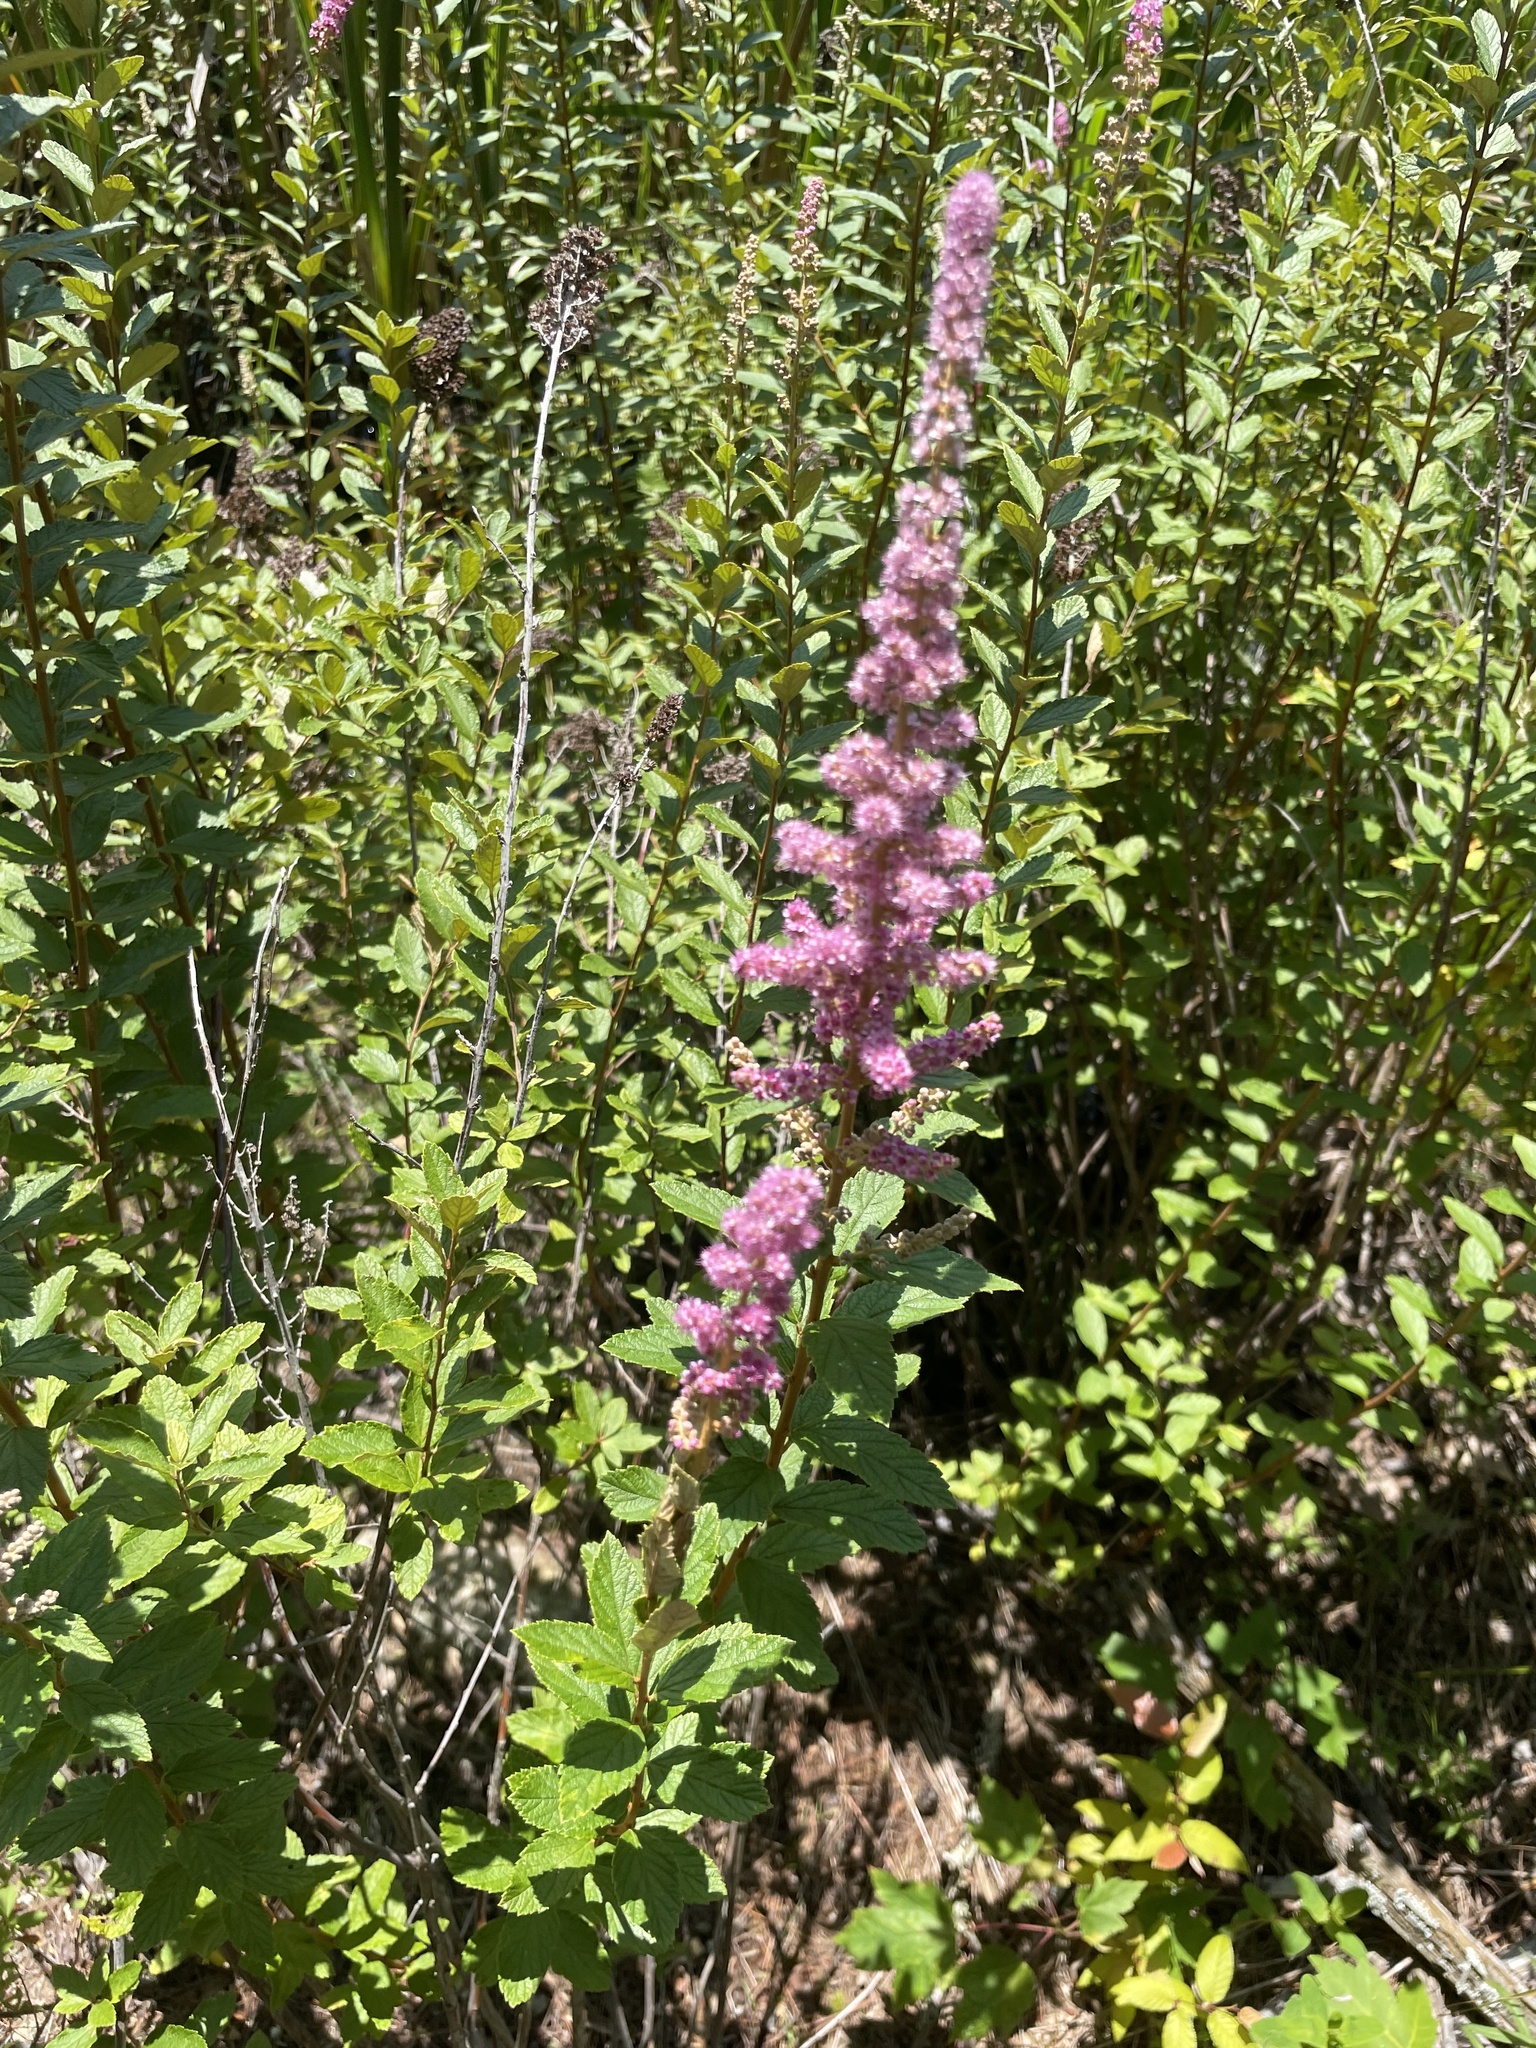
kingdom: Plantae
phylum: Tracheophyta
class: Magnoliopsida
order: Rosales
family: Rosaceae
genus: Spiraea
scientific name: Spiraea tomentosa
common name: Hardhack
